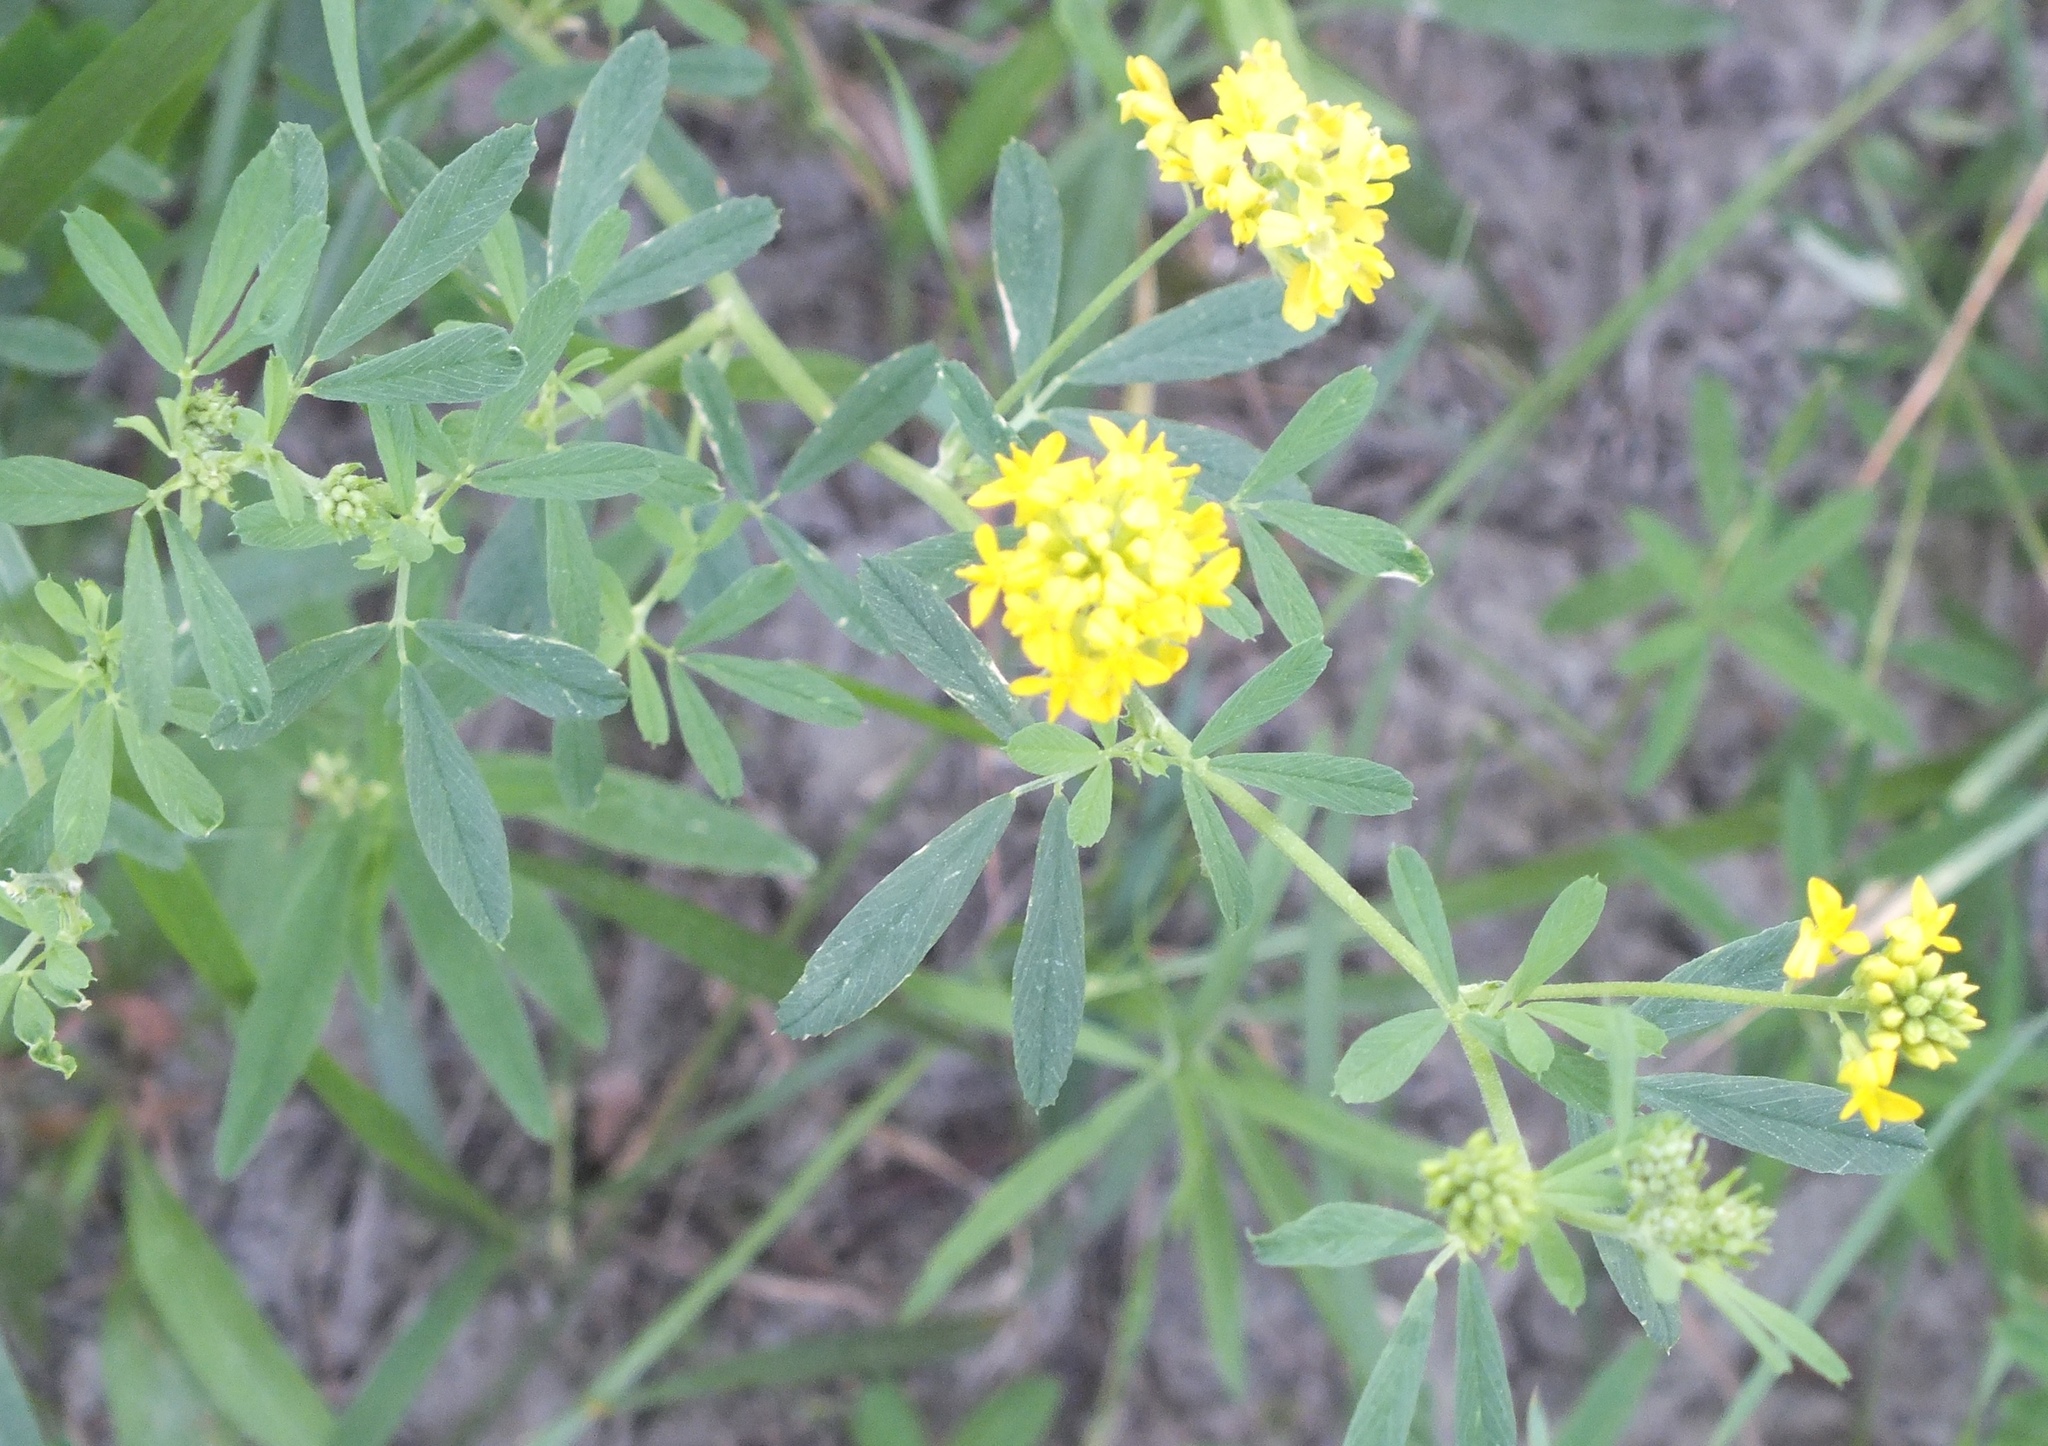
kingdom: Plantae
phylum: Tracheophyta
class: Magnoliopsida
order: Fabales
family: Fabaceae
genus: Medicago
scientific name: Medicago falcata
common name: Sickle medick
